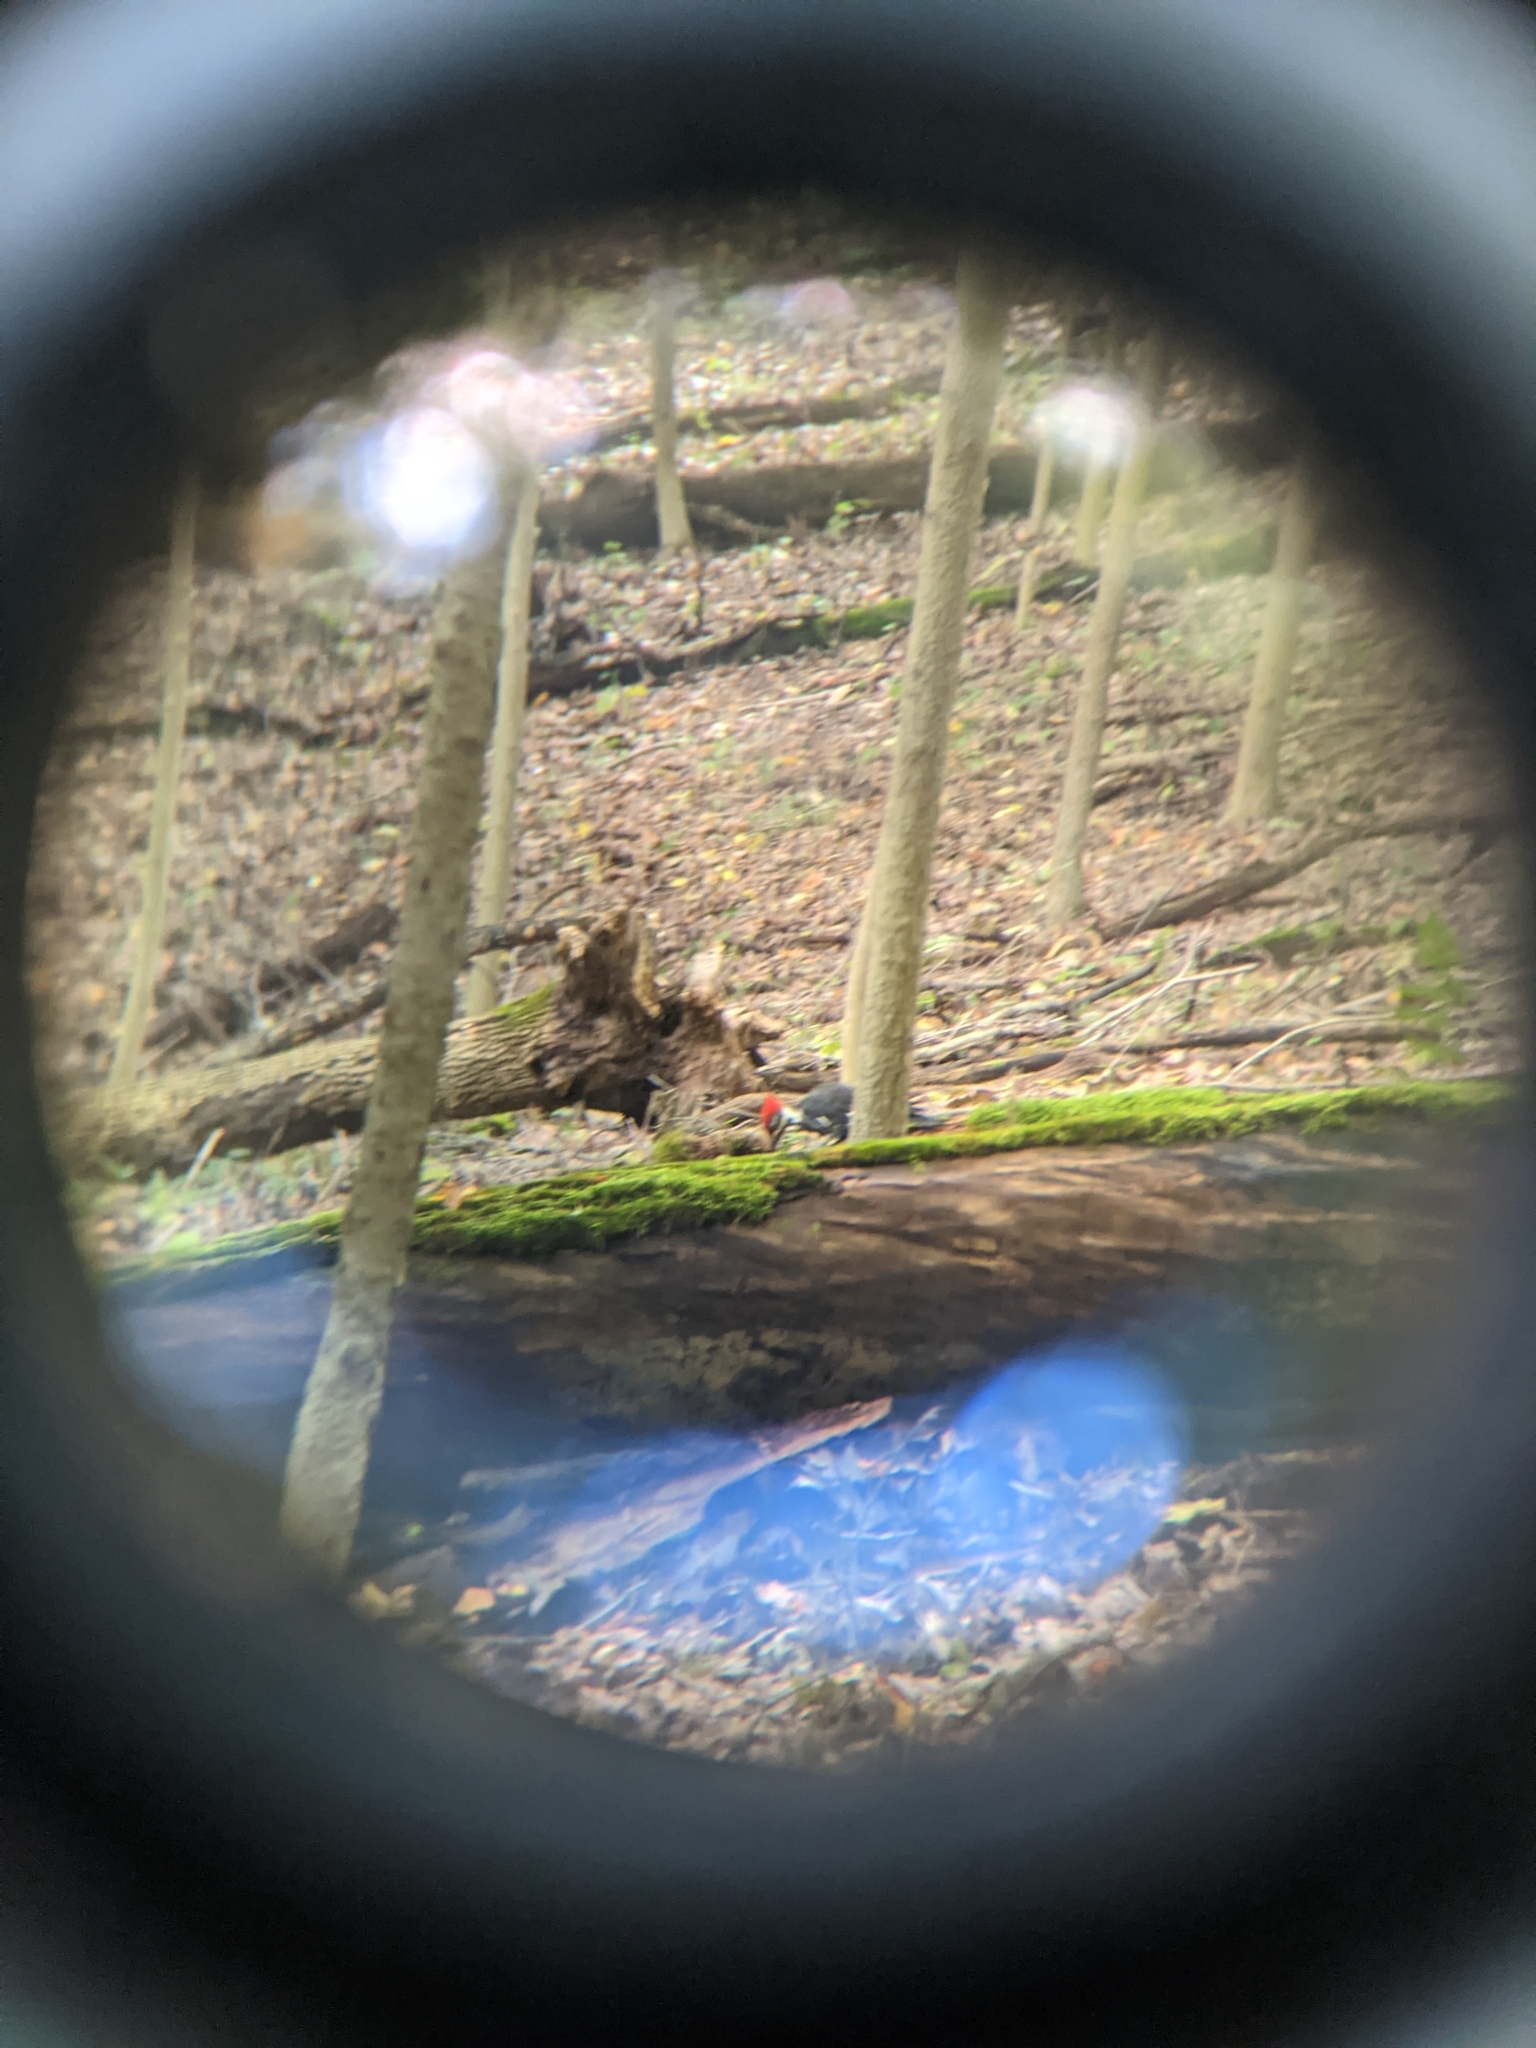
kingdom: Animalia
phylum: Chordata
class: Aves
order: Piciformes
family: Picidae
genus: Dryocopus
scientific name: Dryocopus pileatus
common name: Pileated woodpecker
